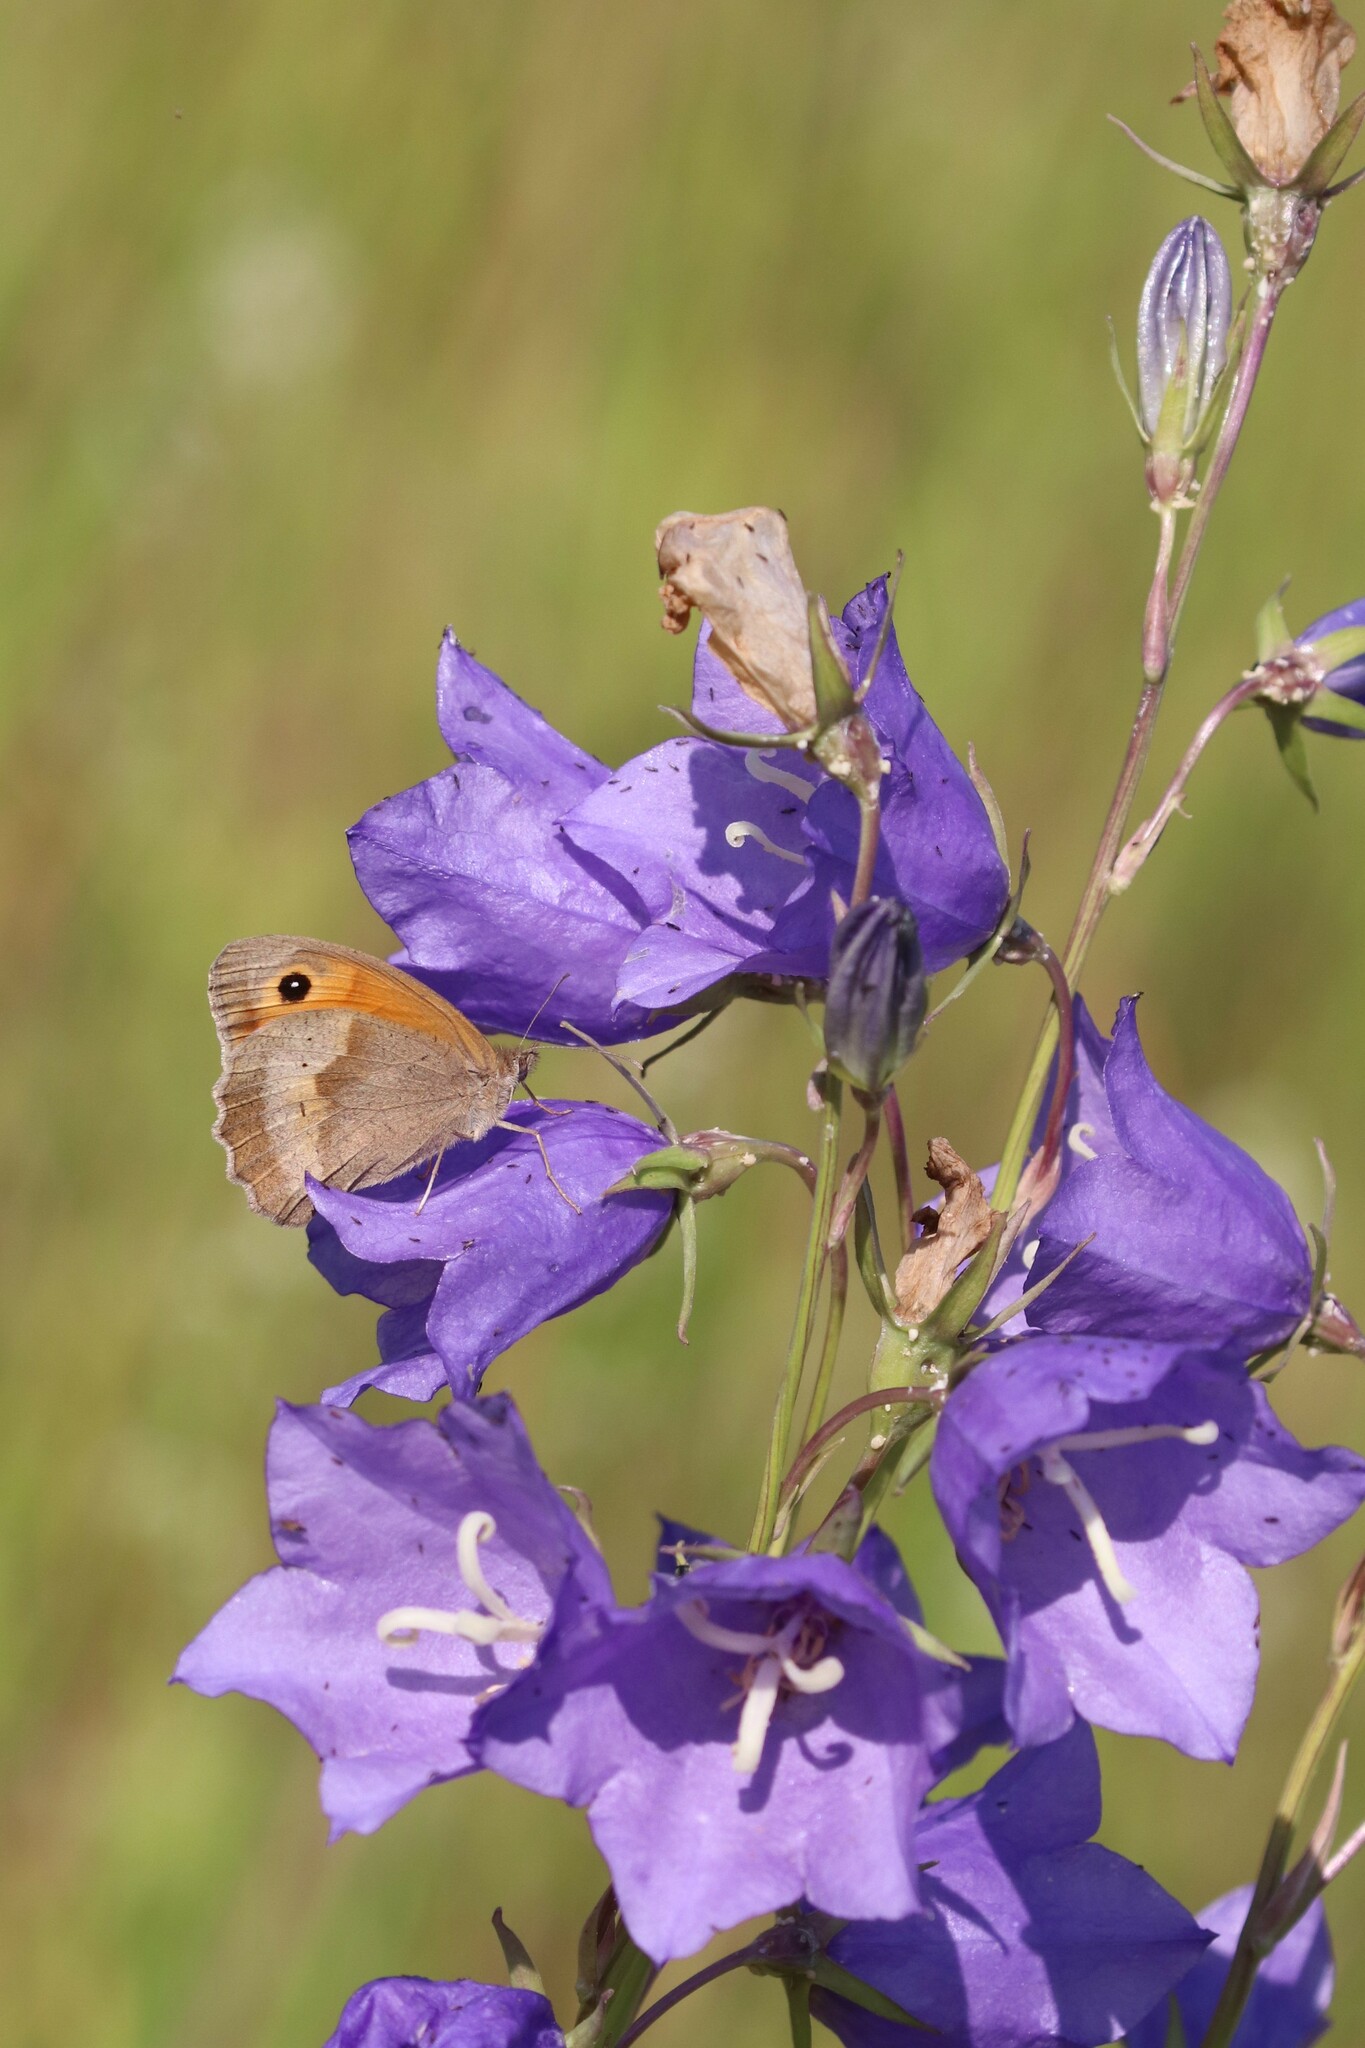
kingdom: Plantae
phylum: Tracheophyta
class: Magnoliopsida
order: Asterales
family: Campanulaceae
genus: Campanula
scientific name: Campanula persicifolia
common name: Peach-leaved bellflower
